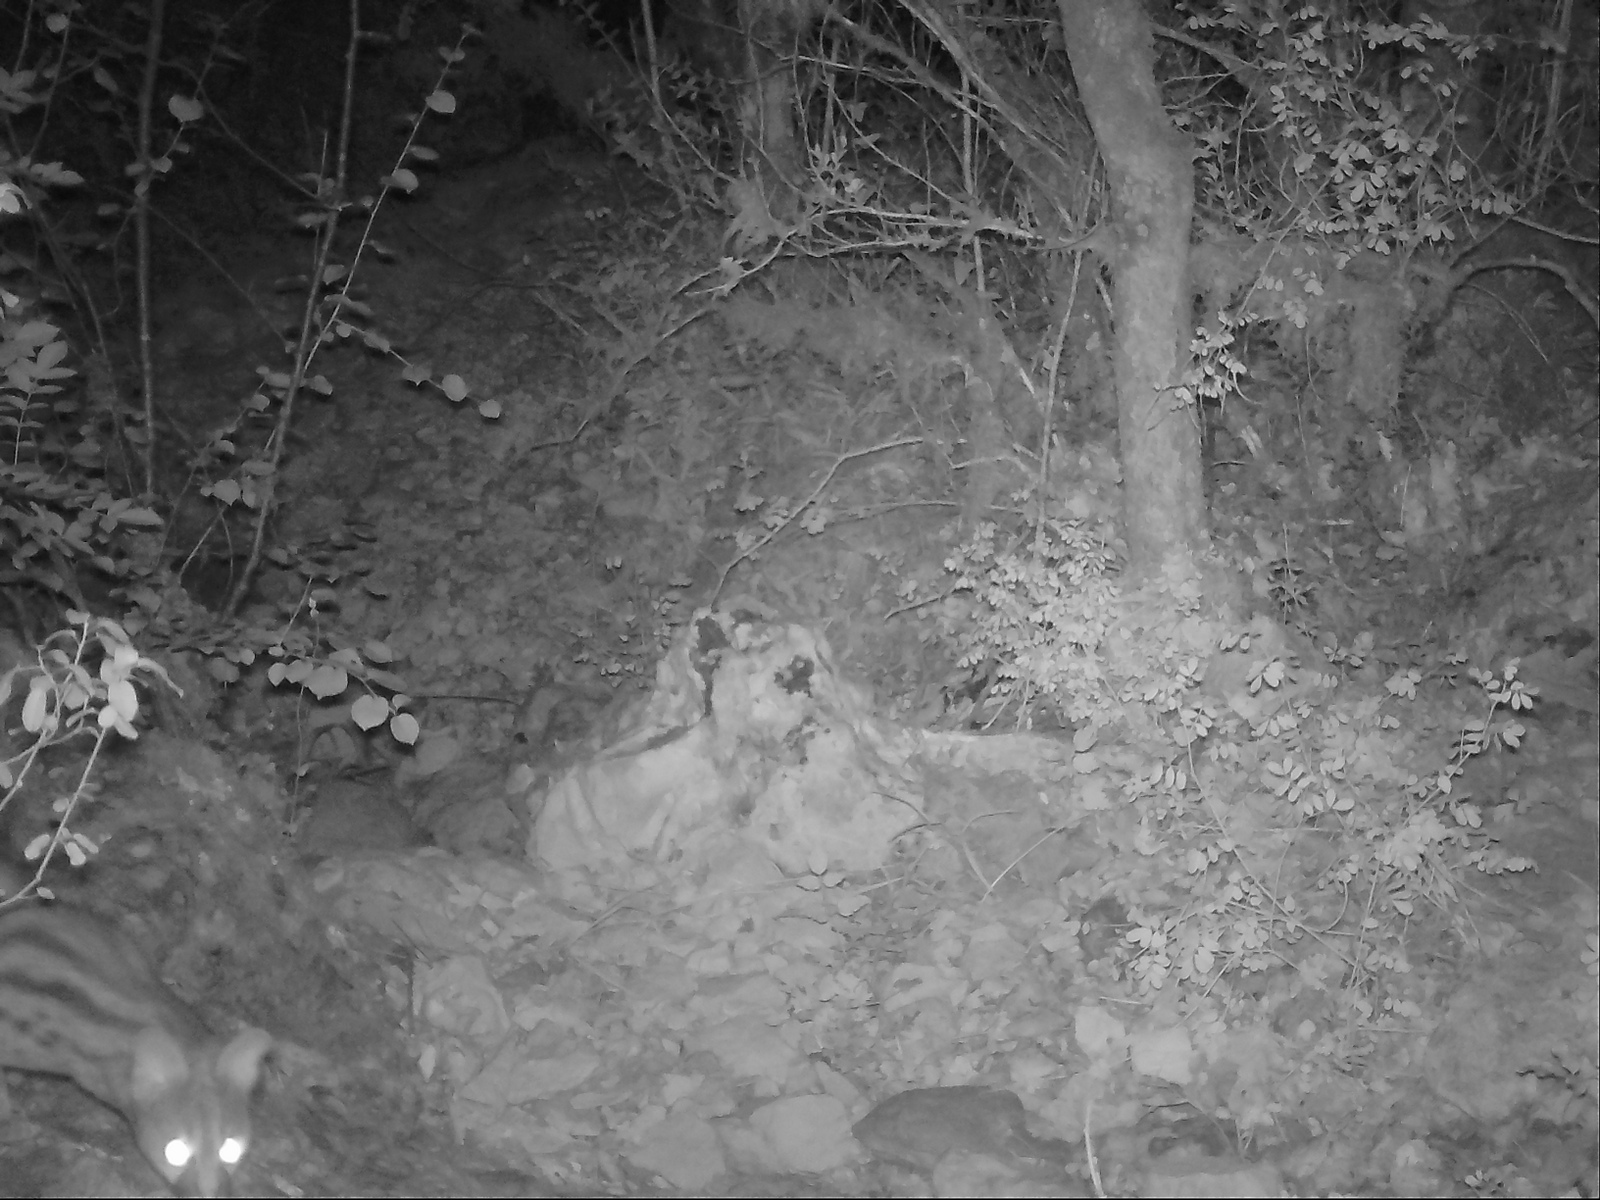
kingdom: Animalia
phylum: Chordata
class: Mammalia
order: Carnivora
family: Viverridae
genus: Genetta
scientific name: Genetta genetta
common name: Common genet
